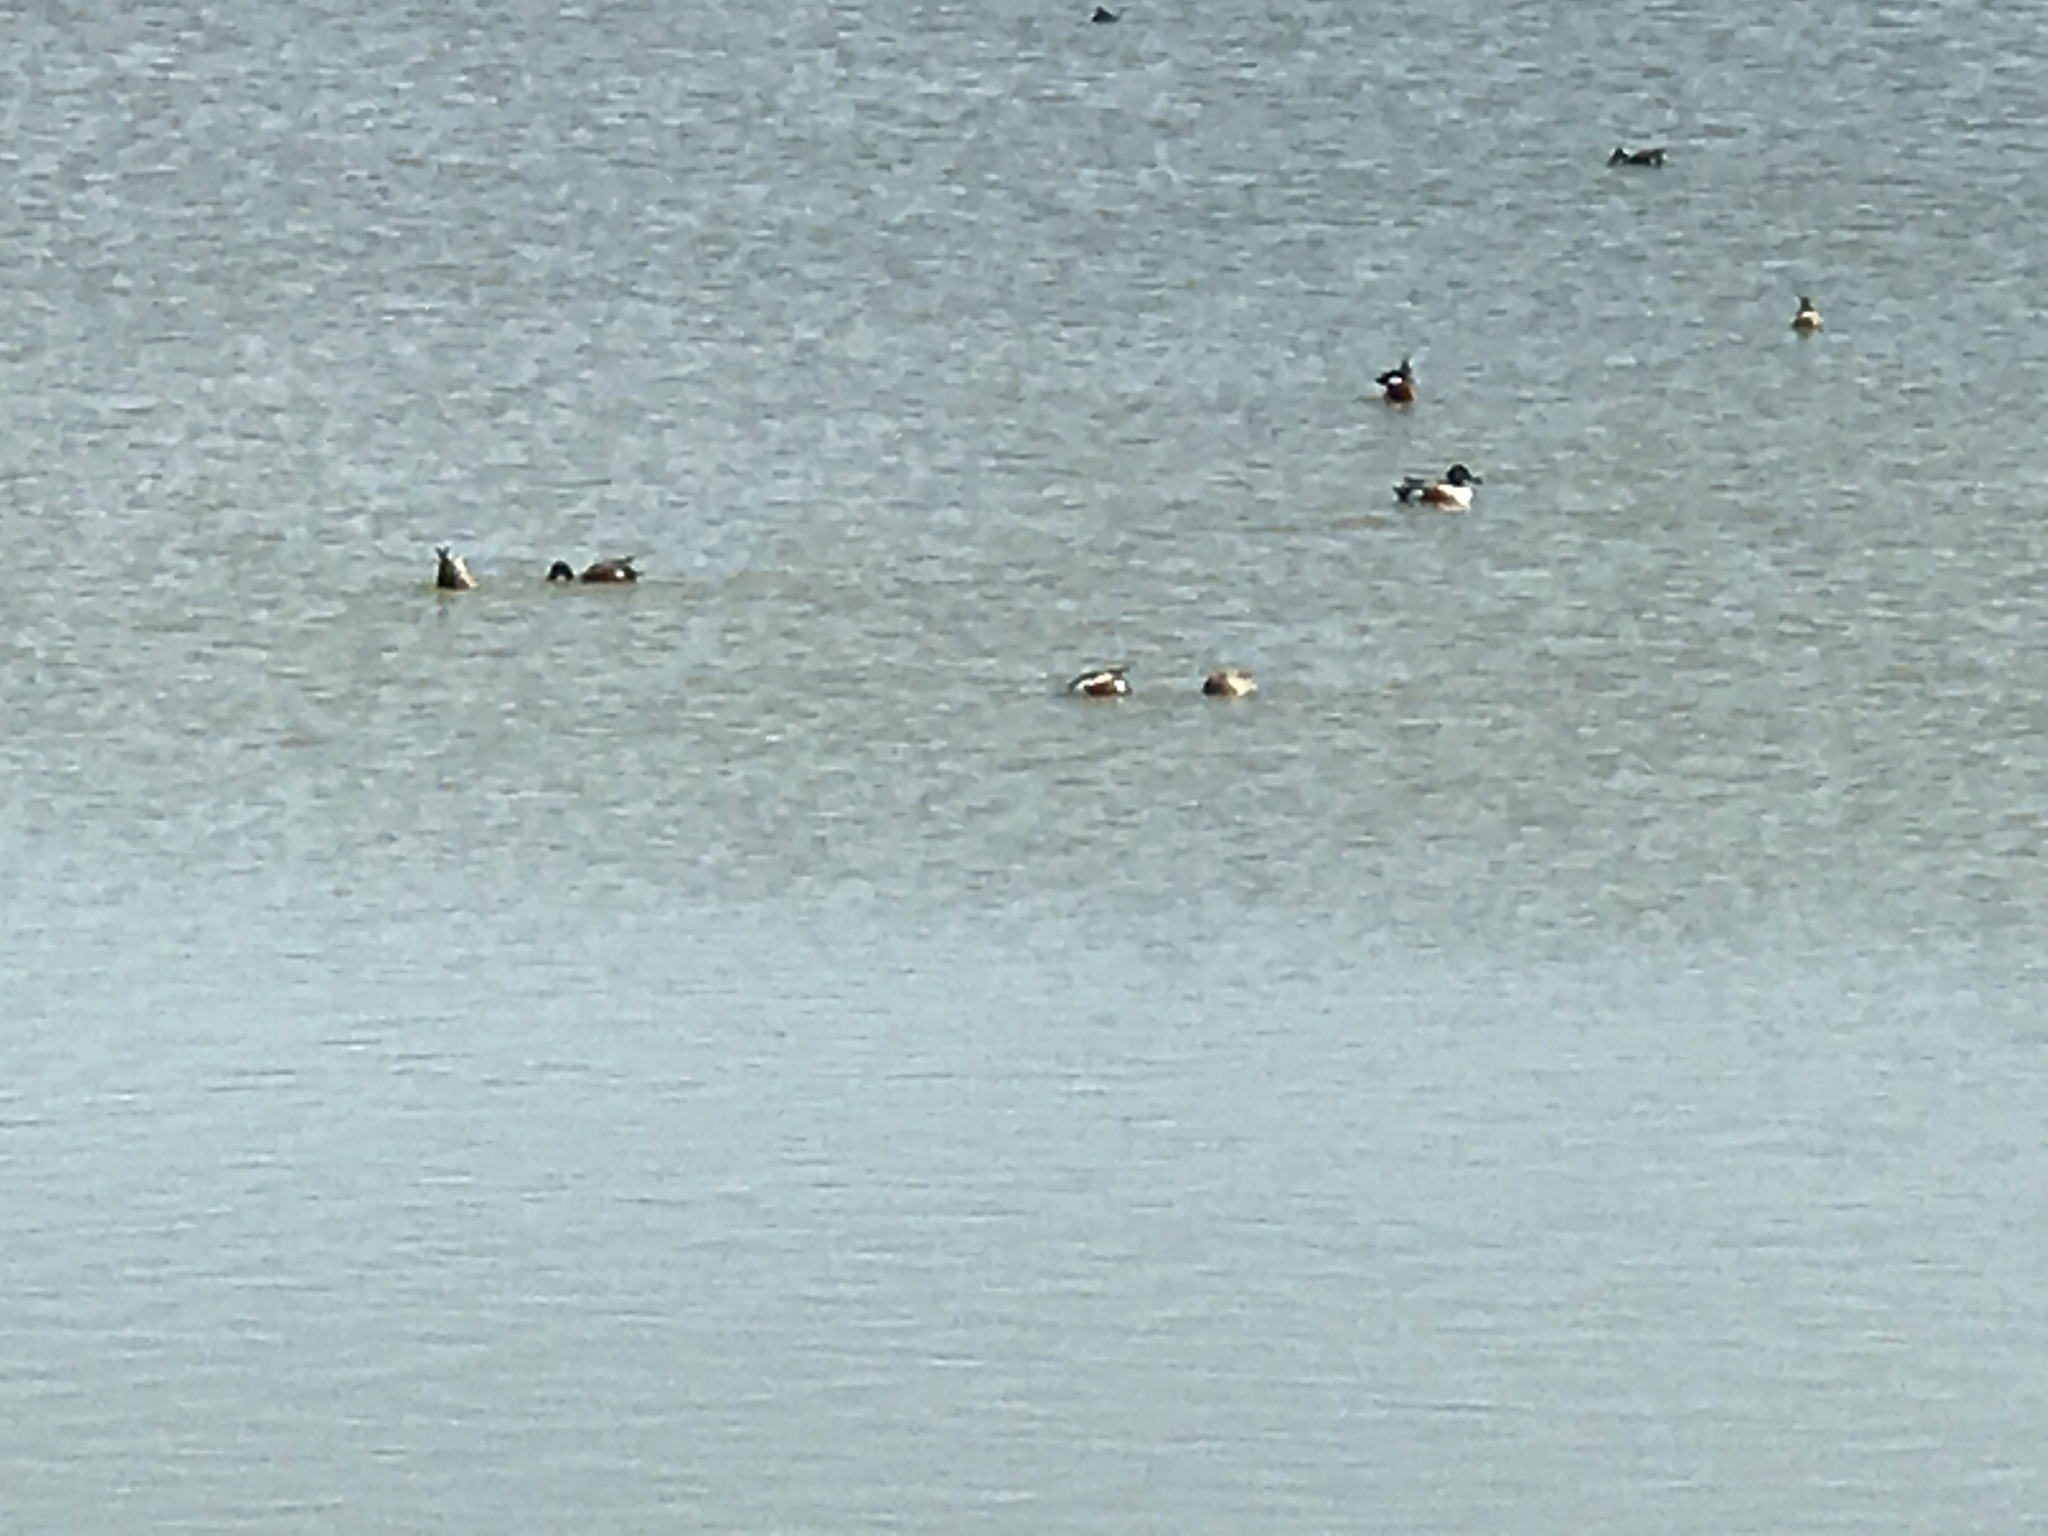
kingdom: Animalia
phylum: Chordata
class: Aves
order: Anseriformes
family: Anatidae
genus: Spatula
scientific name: Spatula clypeata
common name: Northern shoveler
